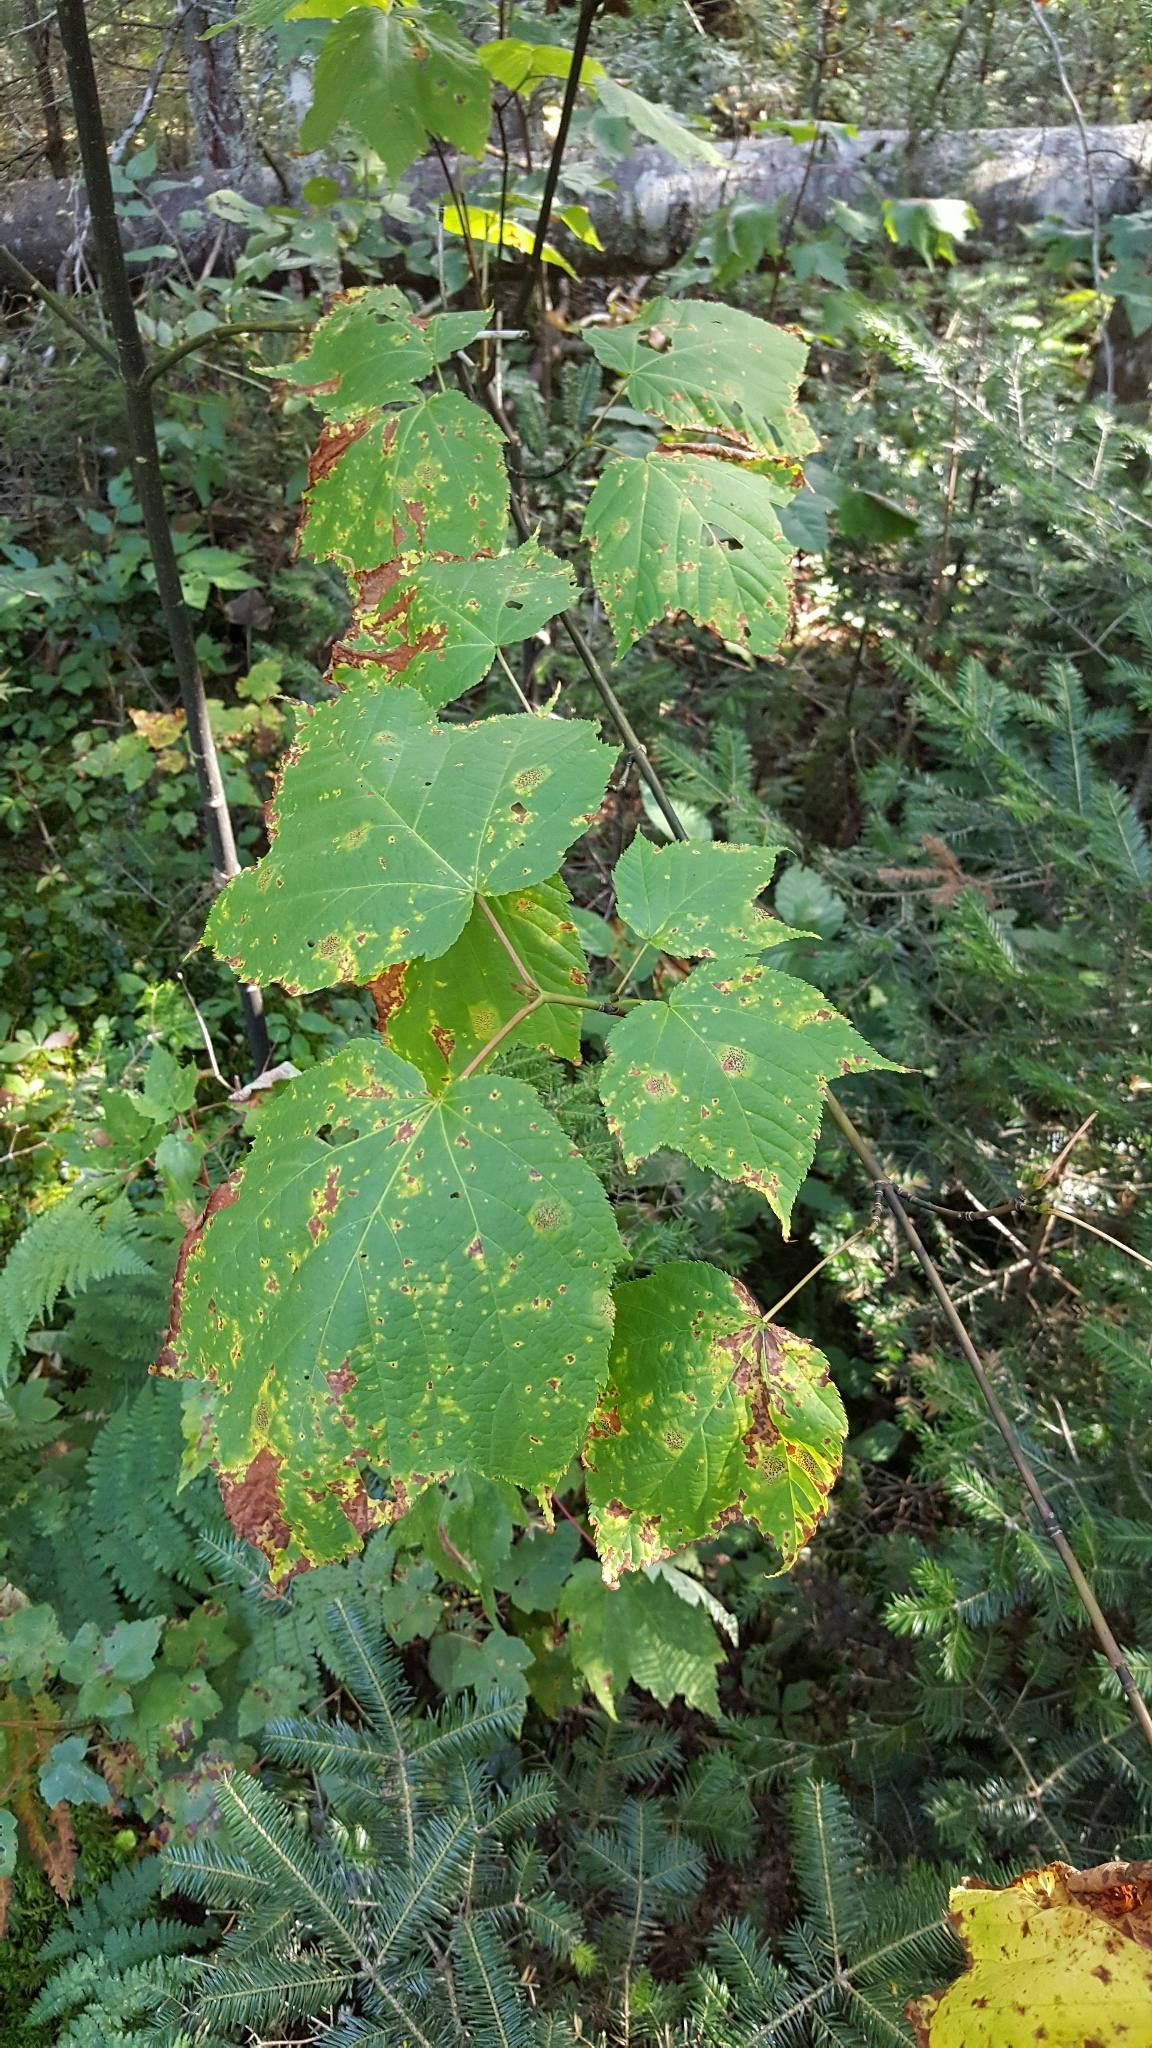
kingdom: Plantae
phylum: Tracheophyta
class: Magnoliopsida
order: Sapindales
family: Sapindaceae
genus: Acer
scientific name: Acer pensylvanicum
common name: Moosewood
